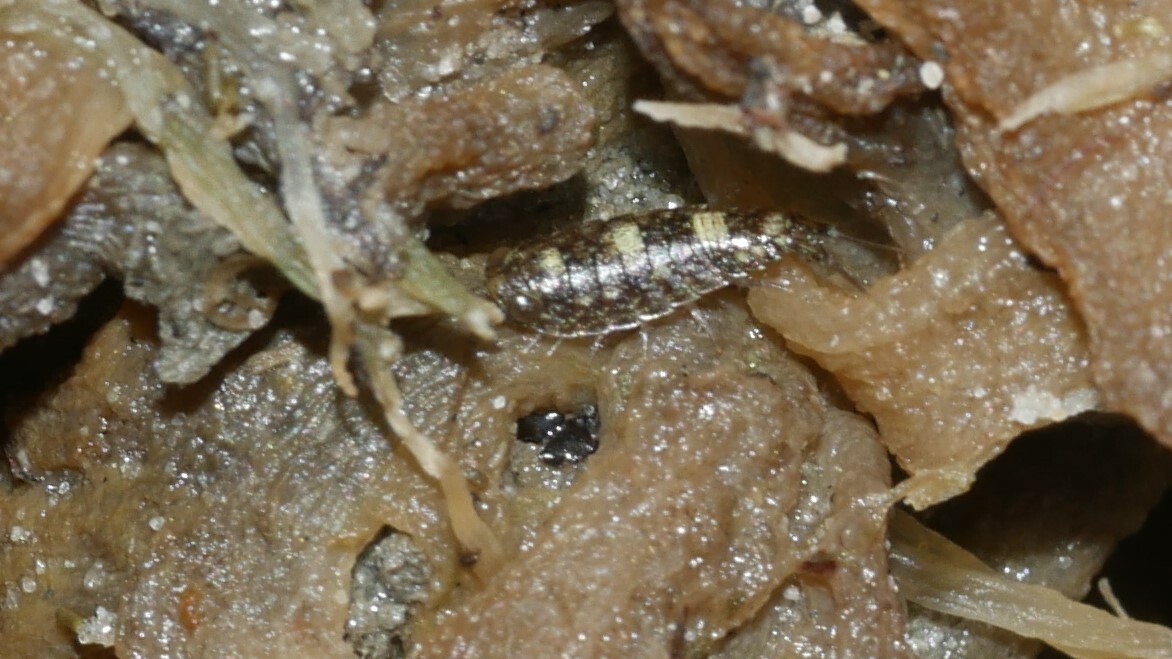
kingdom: Animalia
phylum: Arthropoda
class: Malacostraca
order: Isopoda
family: Ligiidae
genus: Ligia
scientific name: Ligia exotica
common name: Wharf roach
